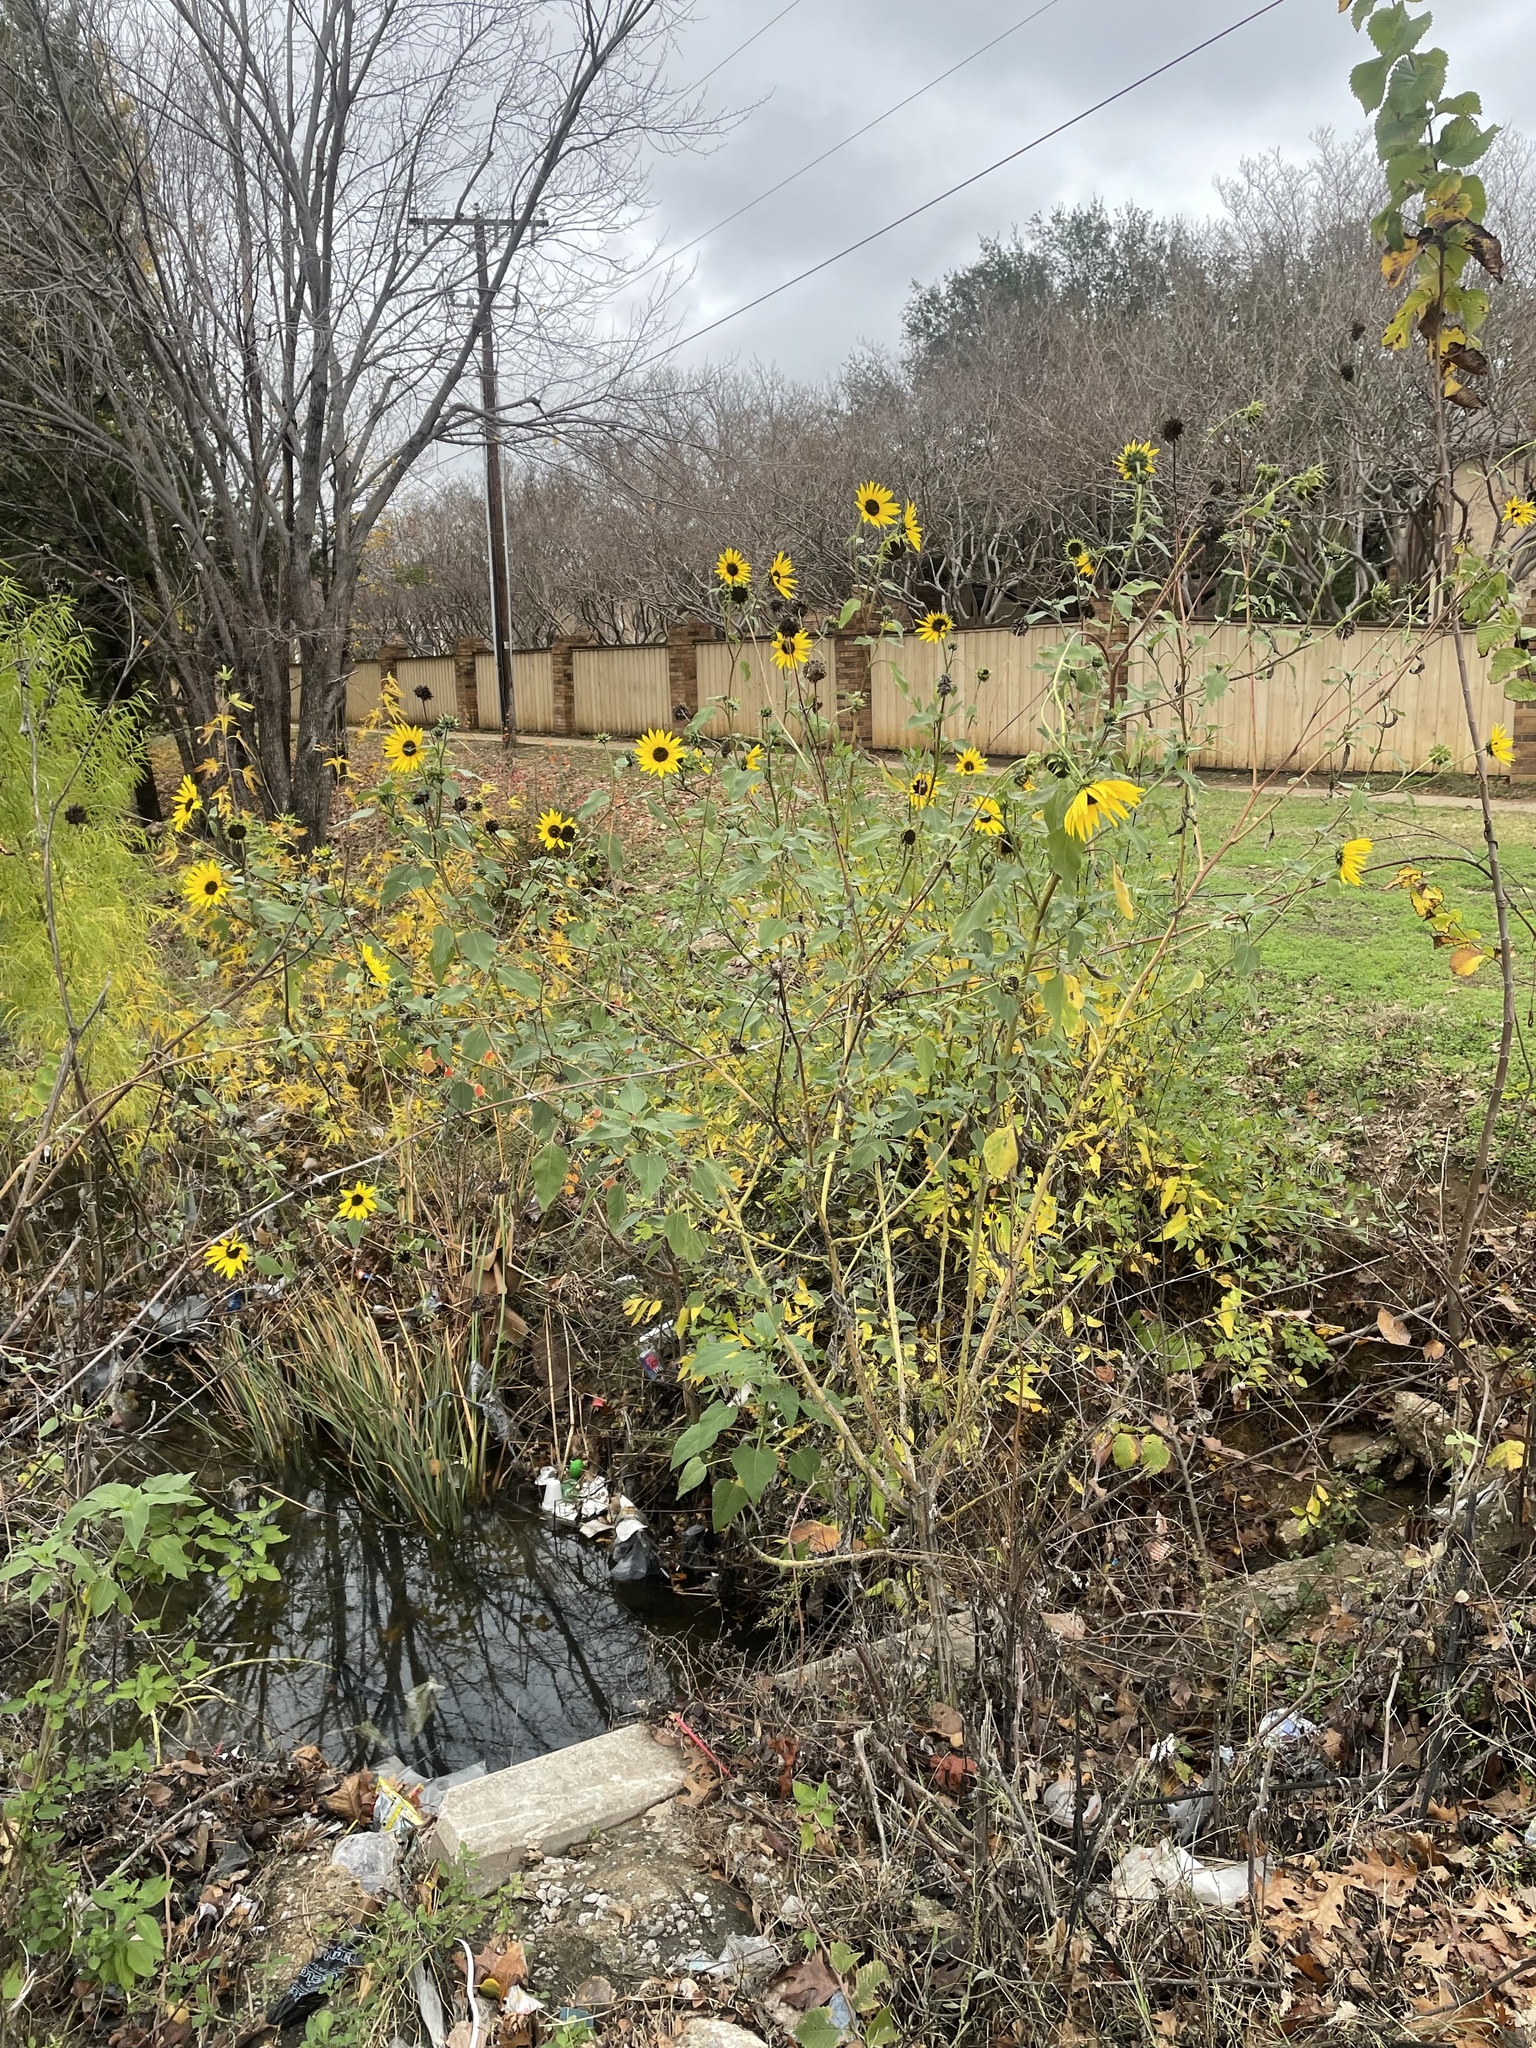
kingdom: Plantae
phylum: Tracheophyta
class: Magnoliopsida
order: Asterales
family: Asteraceae
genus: Helianthus
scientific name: Helianthus annuus
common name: Sunflower
